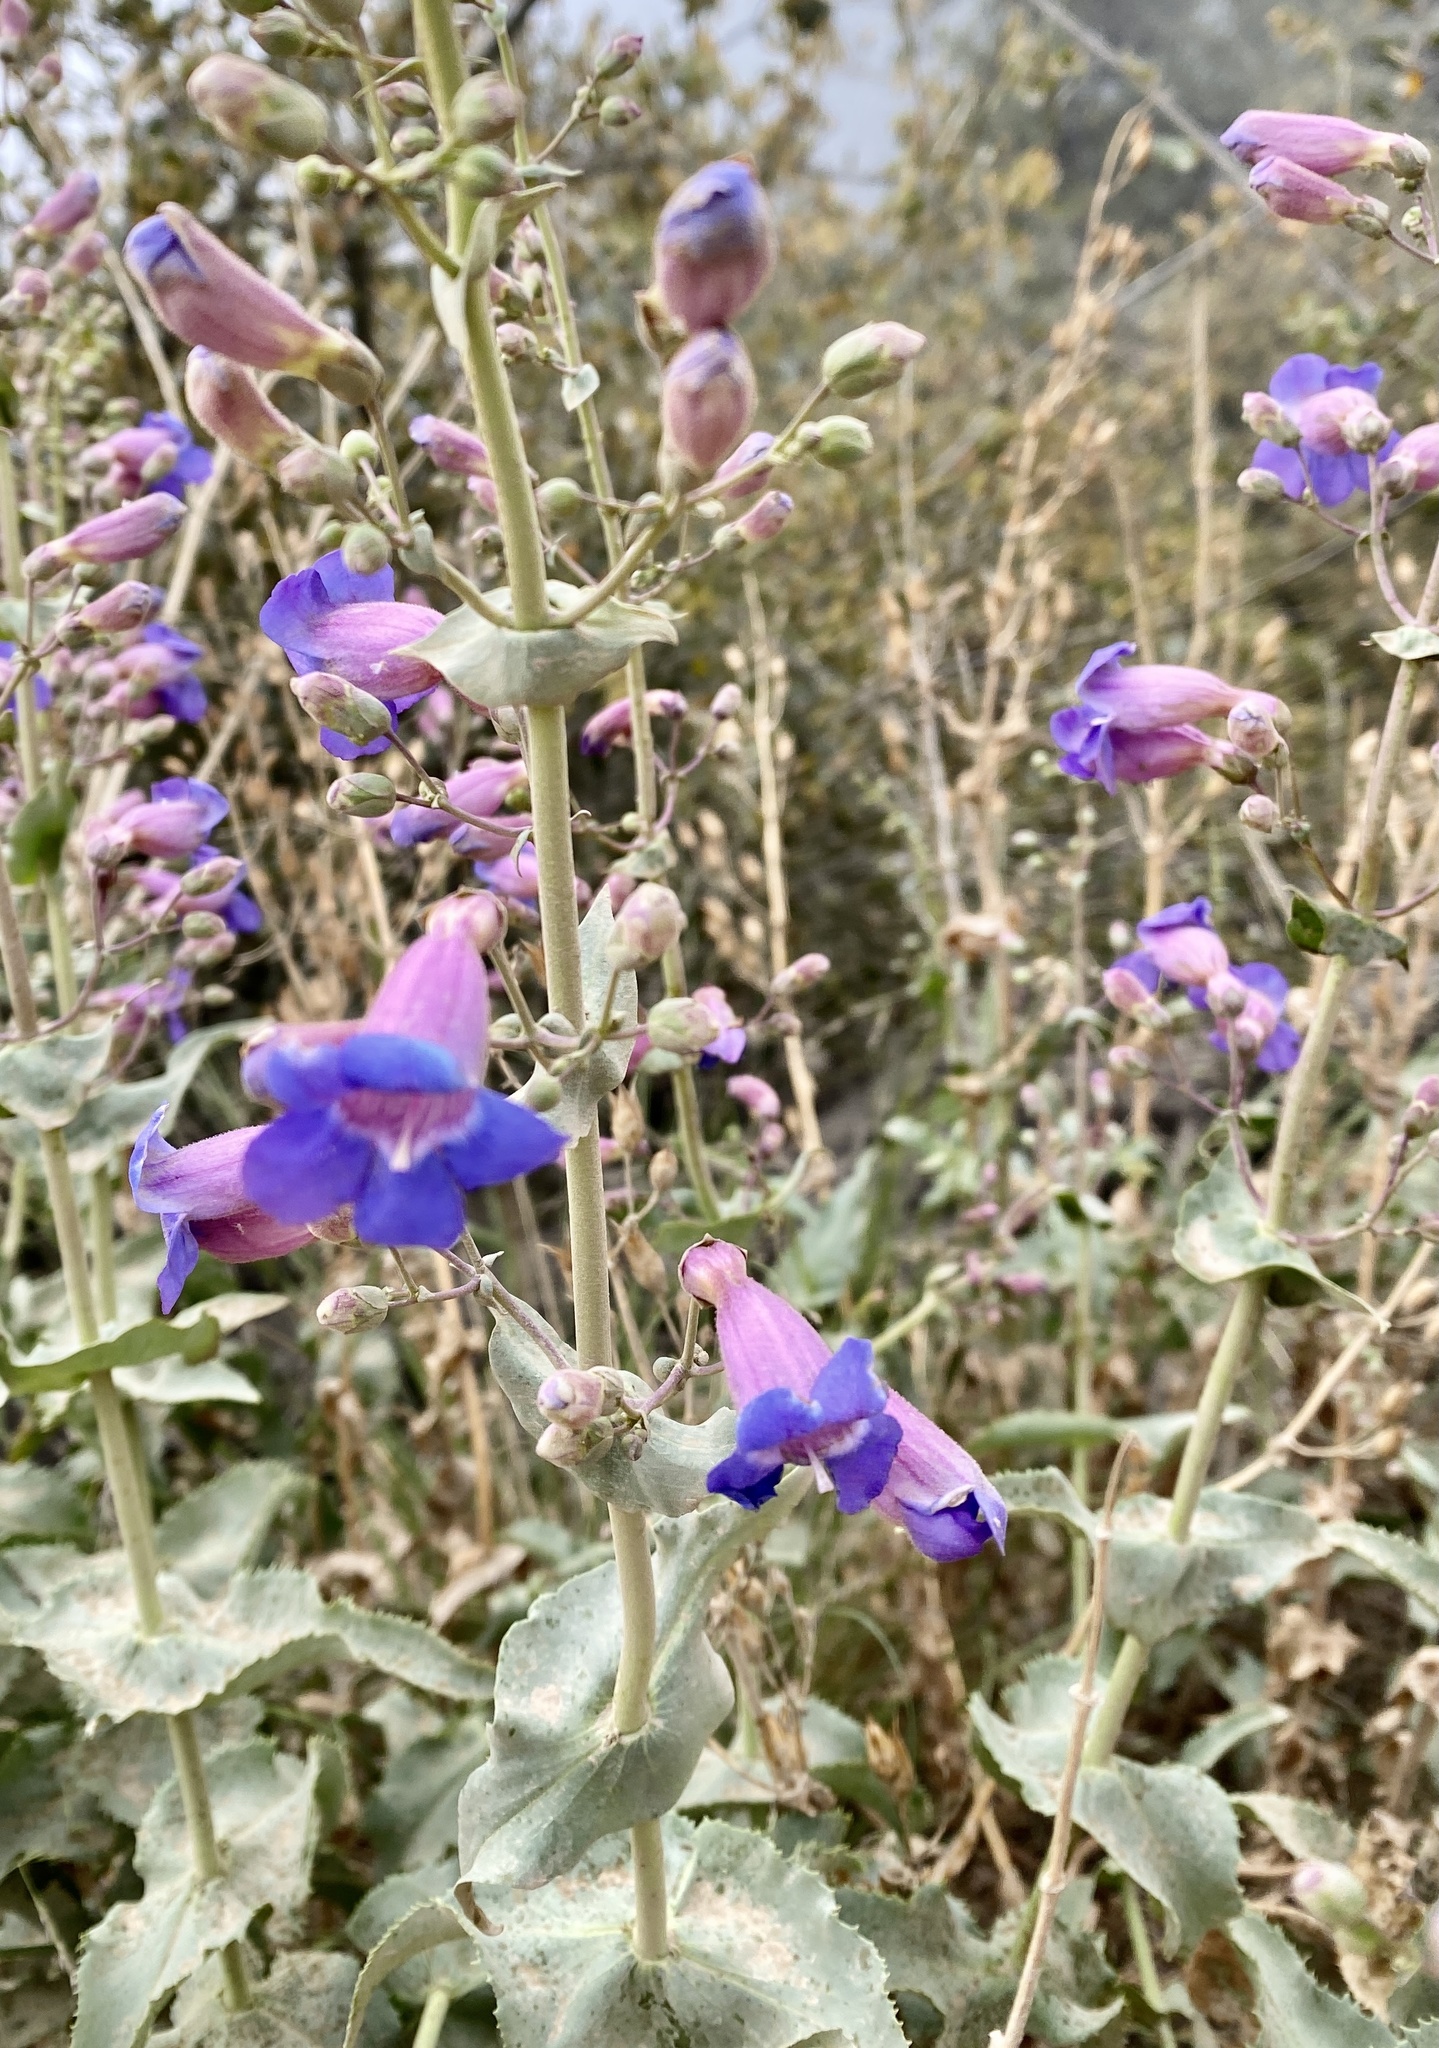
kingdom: Plantae
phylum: Tracheophyta
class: Magnoliopsida
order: Lamiales
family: Plantaginaceae
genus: Penstemon
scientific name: Penstemon spectabilis
